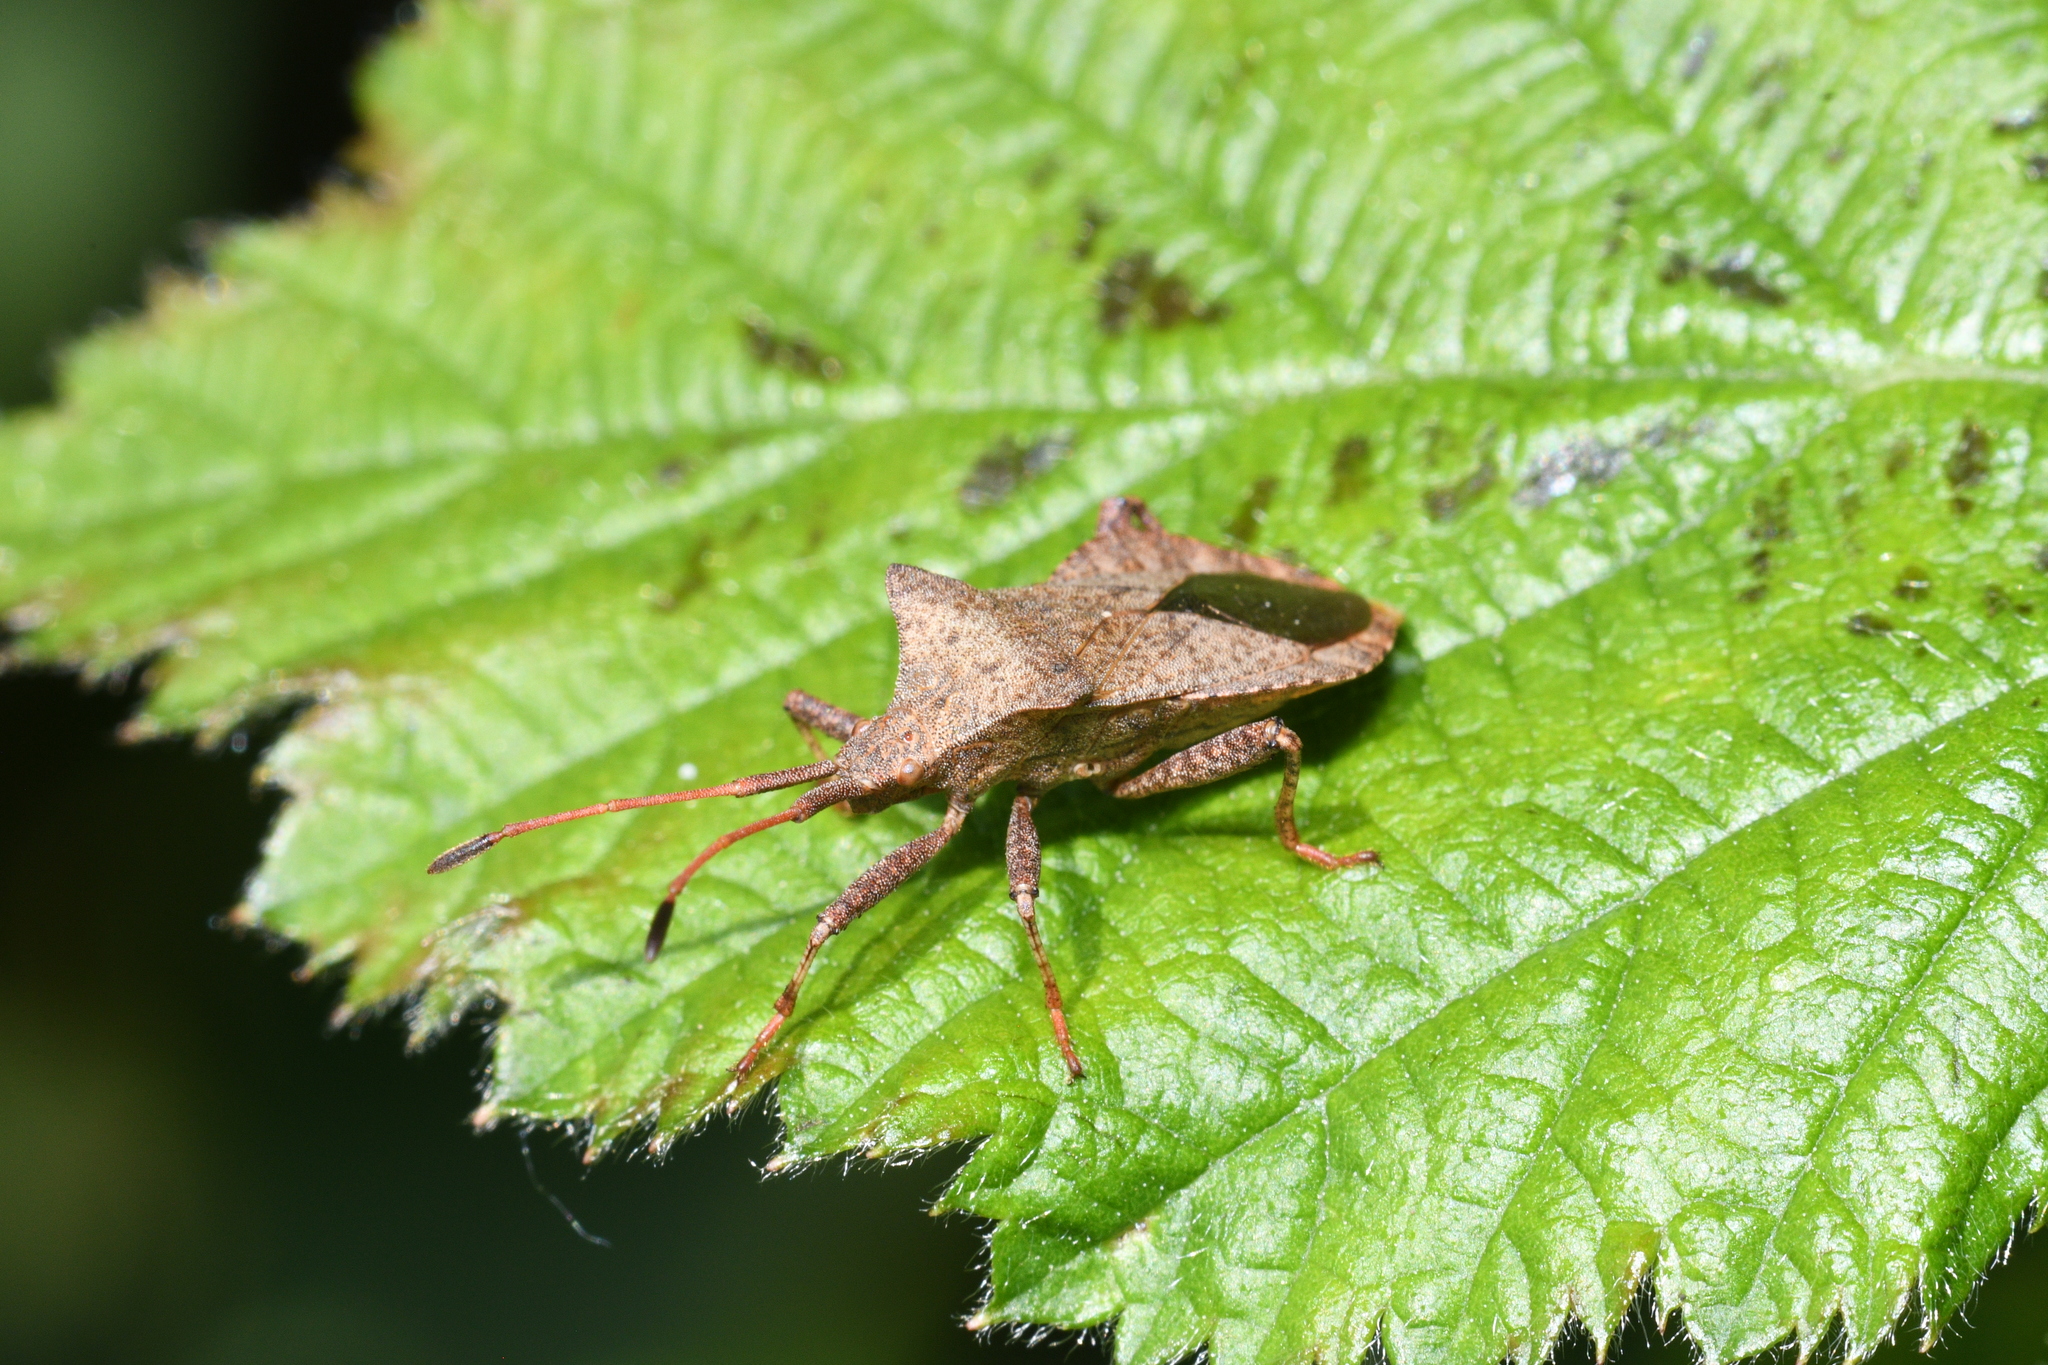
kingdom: Animalia
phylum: Arthropoda
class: Insecta
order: Hemiptera
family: Coreidae
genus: Coreus
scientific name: Coreus marginatus
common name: Dock bug
